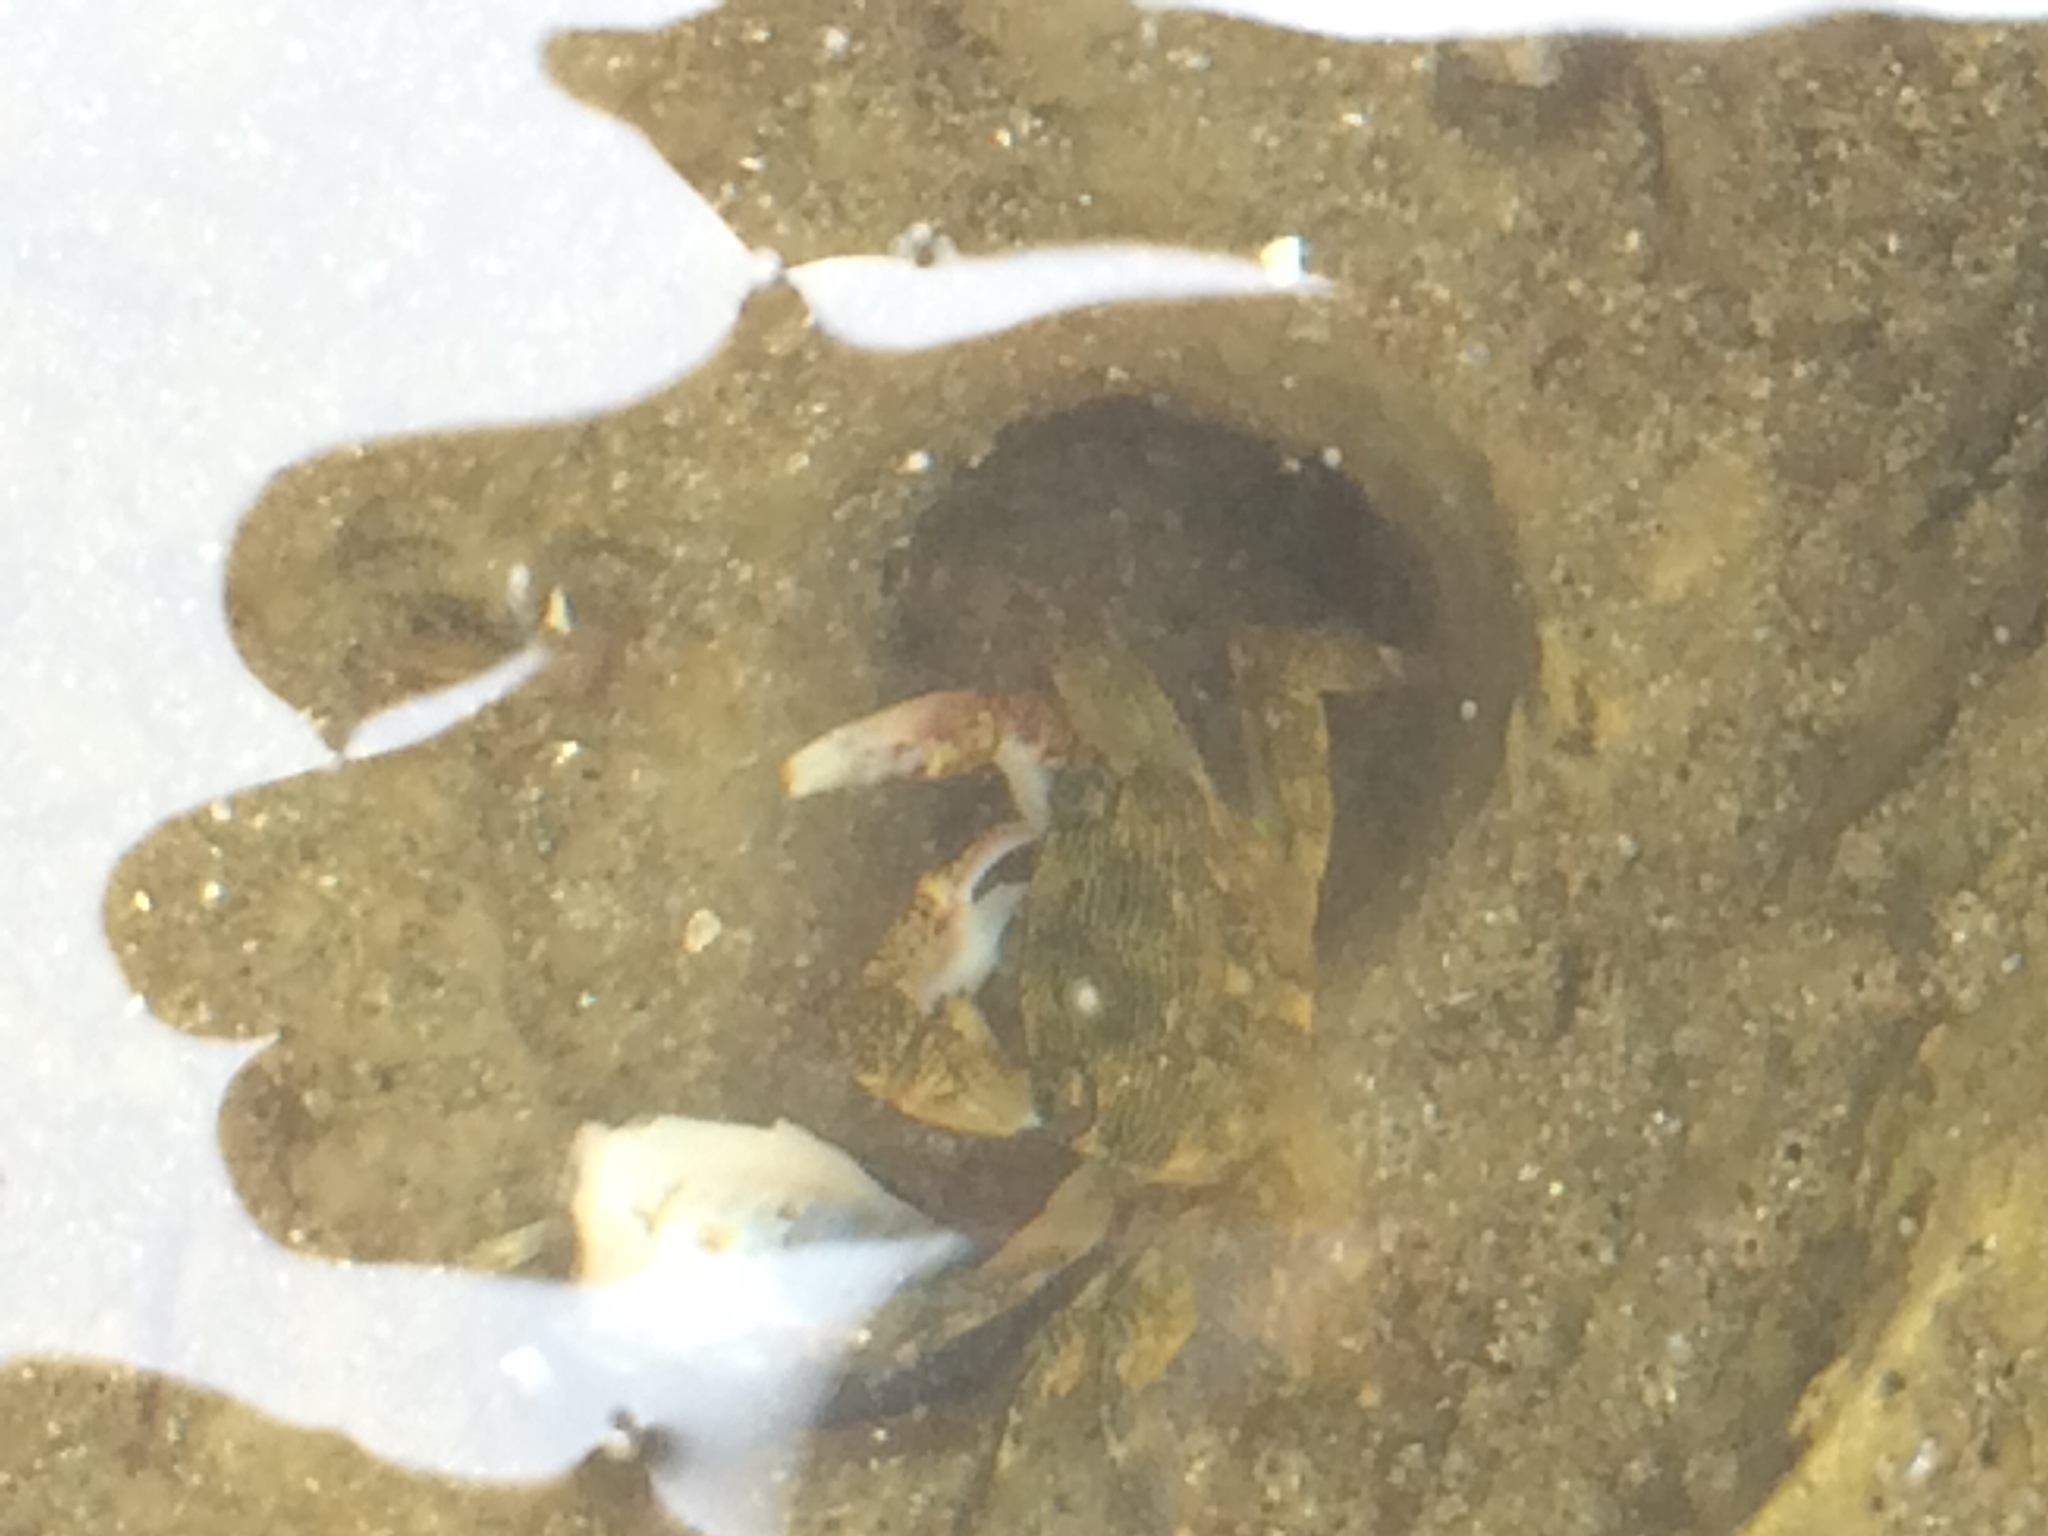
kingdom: Animalia
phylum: Arthropoda
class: Malacostraca
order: Decapoda
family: Grapsidae
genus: Pachygrapsus
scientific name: Pachygrapsus crassipes
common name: Striped shore crab
